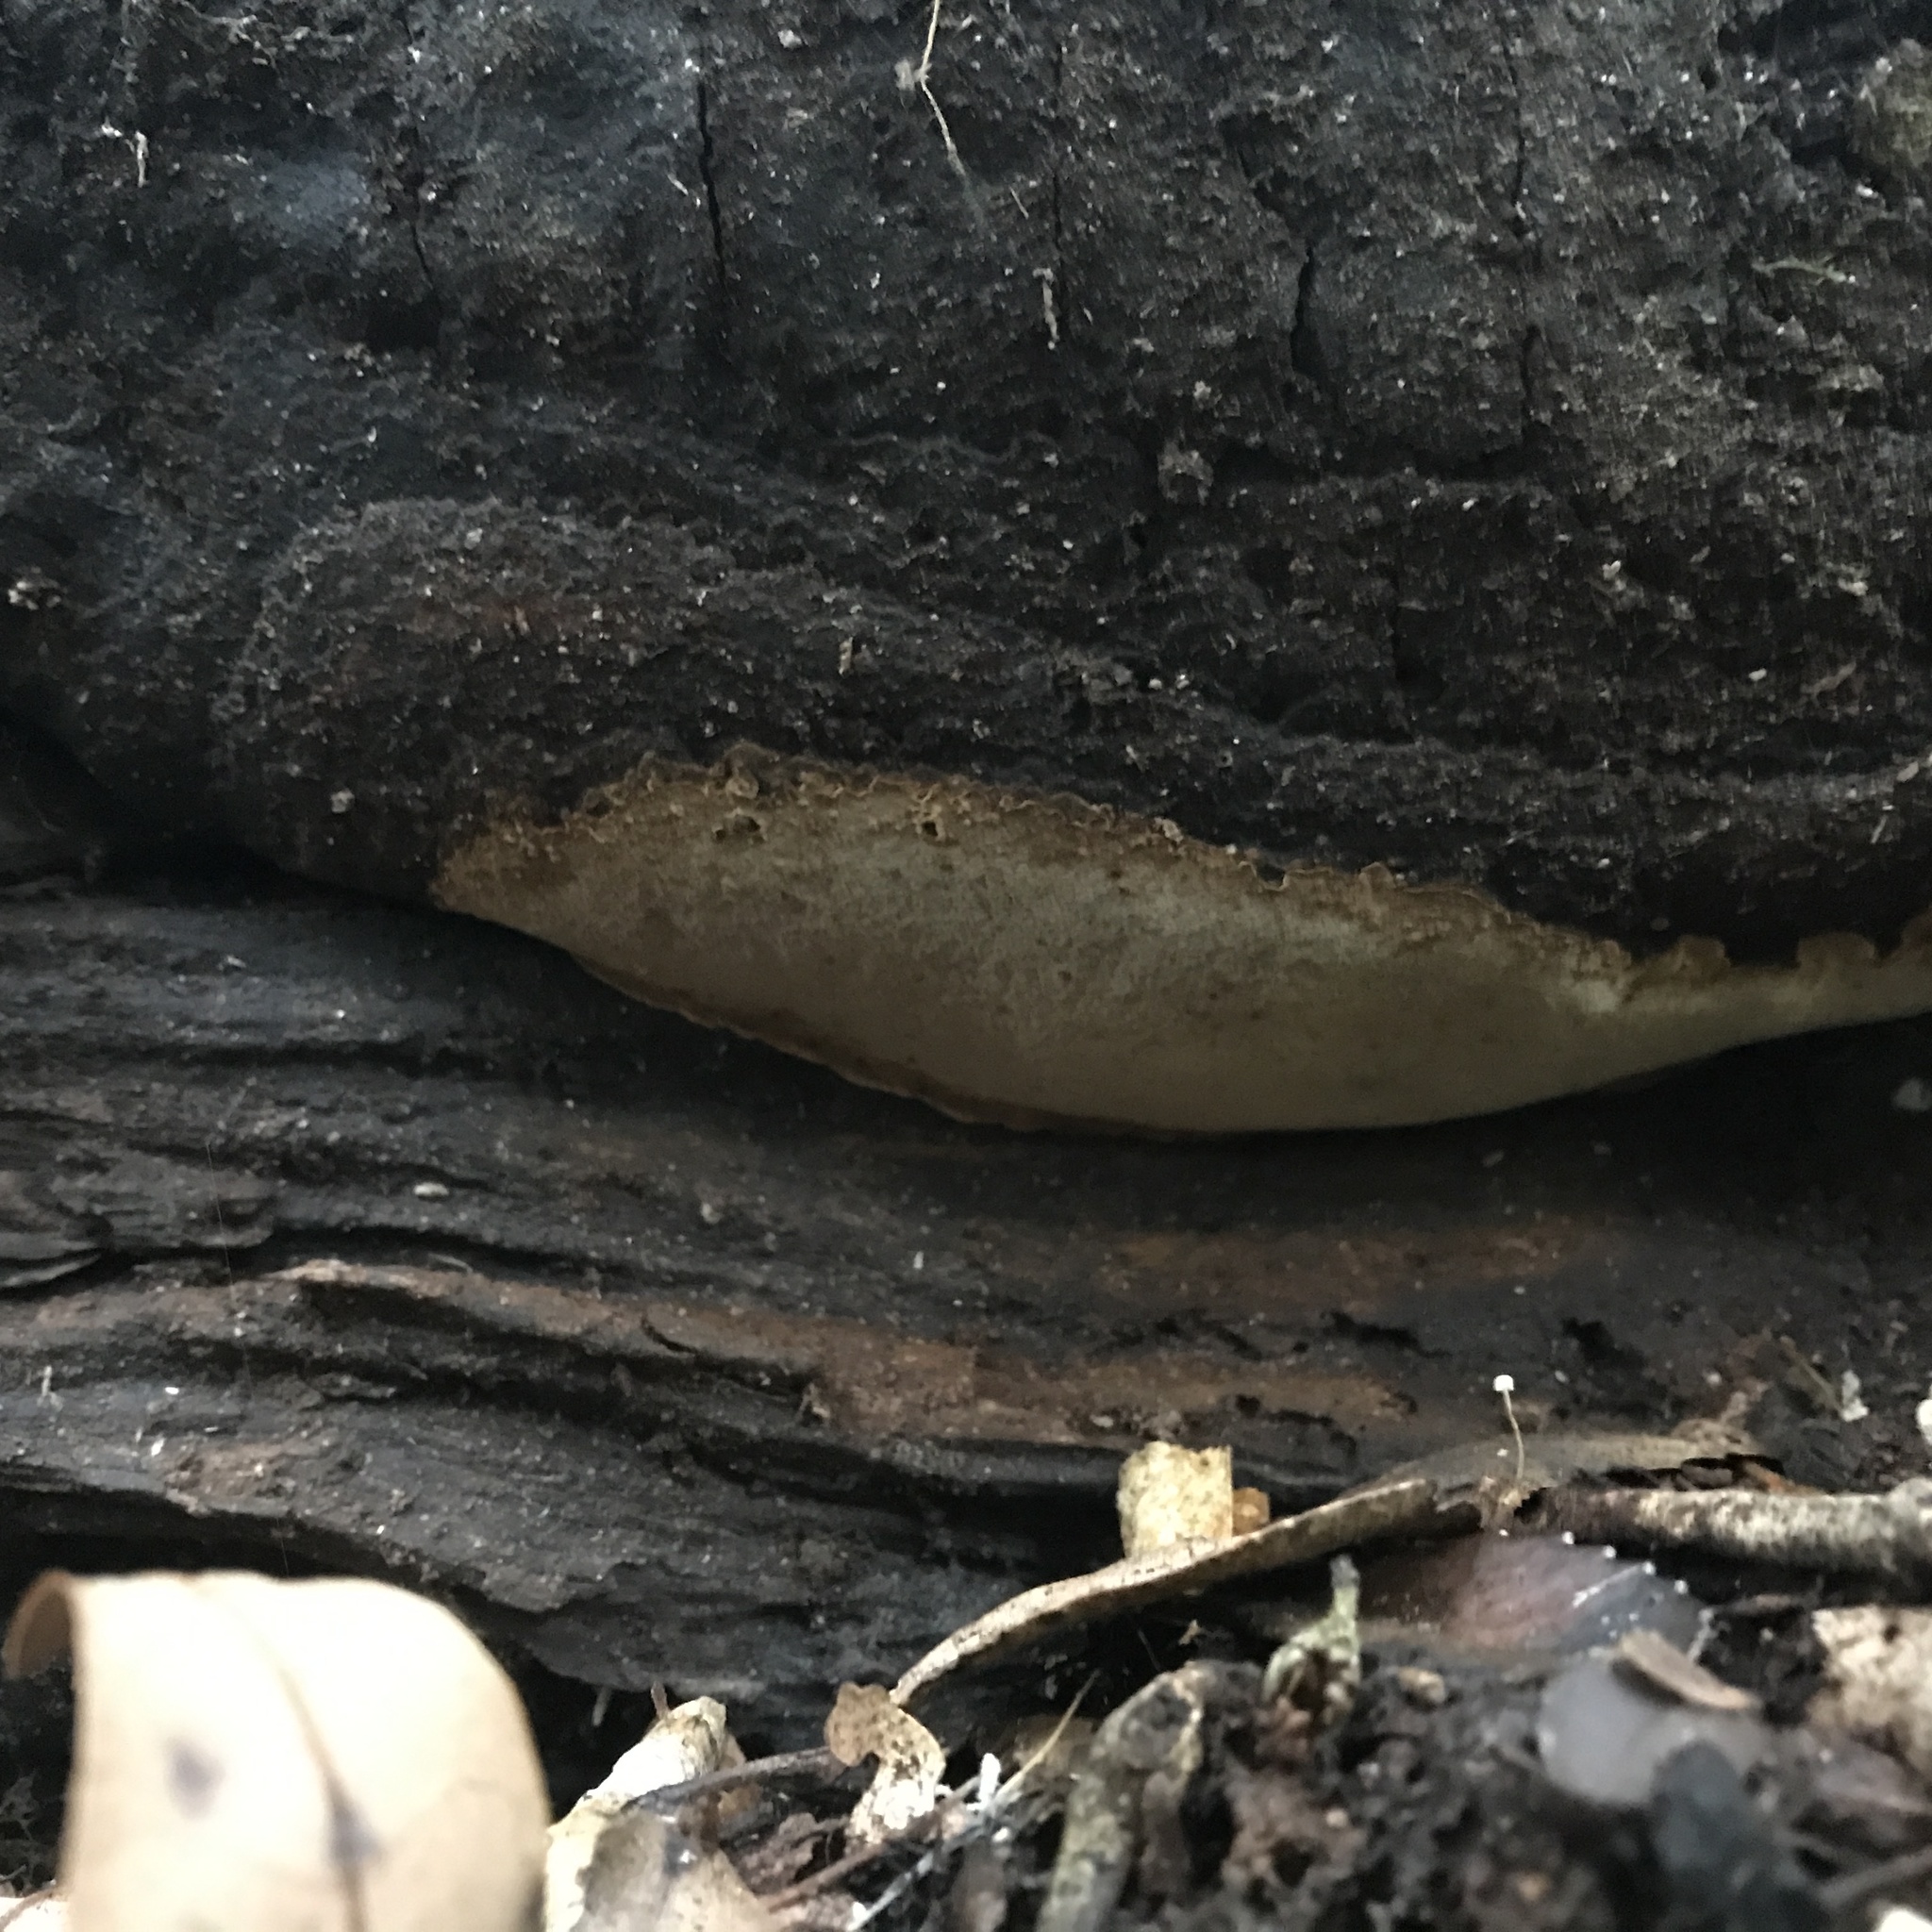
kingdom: Fungi
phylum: Basidiomycota
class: Agaricomycetes
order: Hymenochaetales
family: Hymenochaetaceae
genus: Fomitiporella
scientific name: Fomitiporella coruscans
